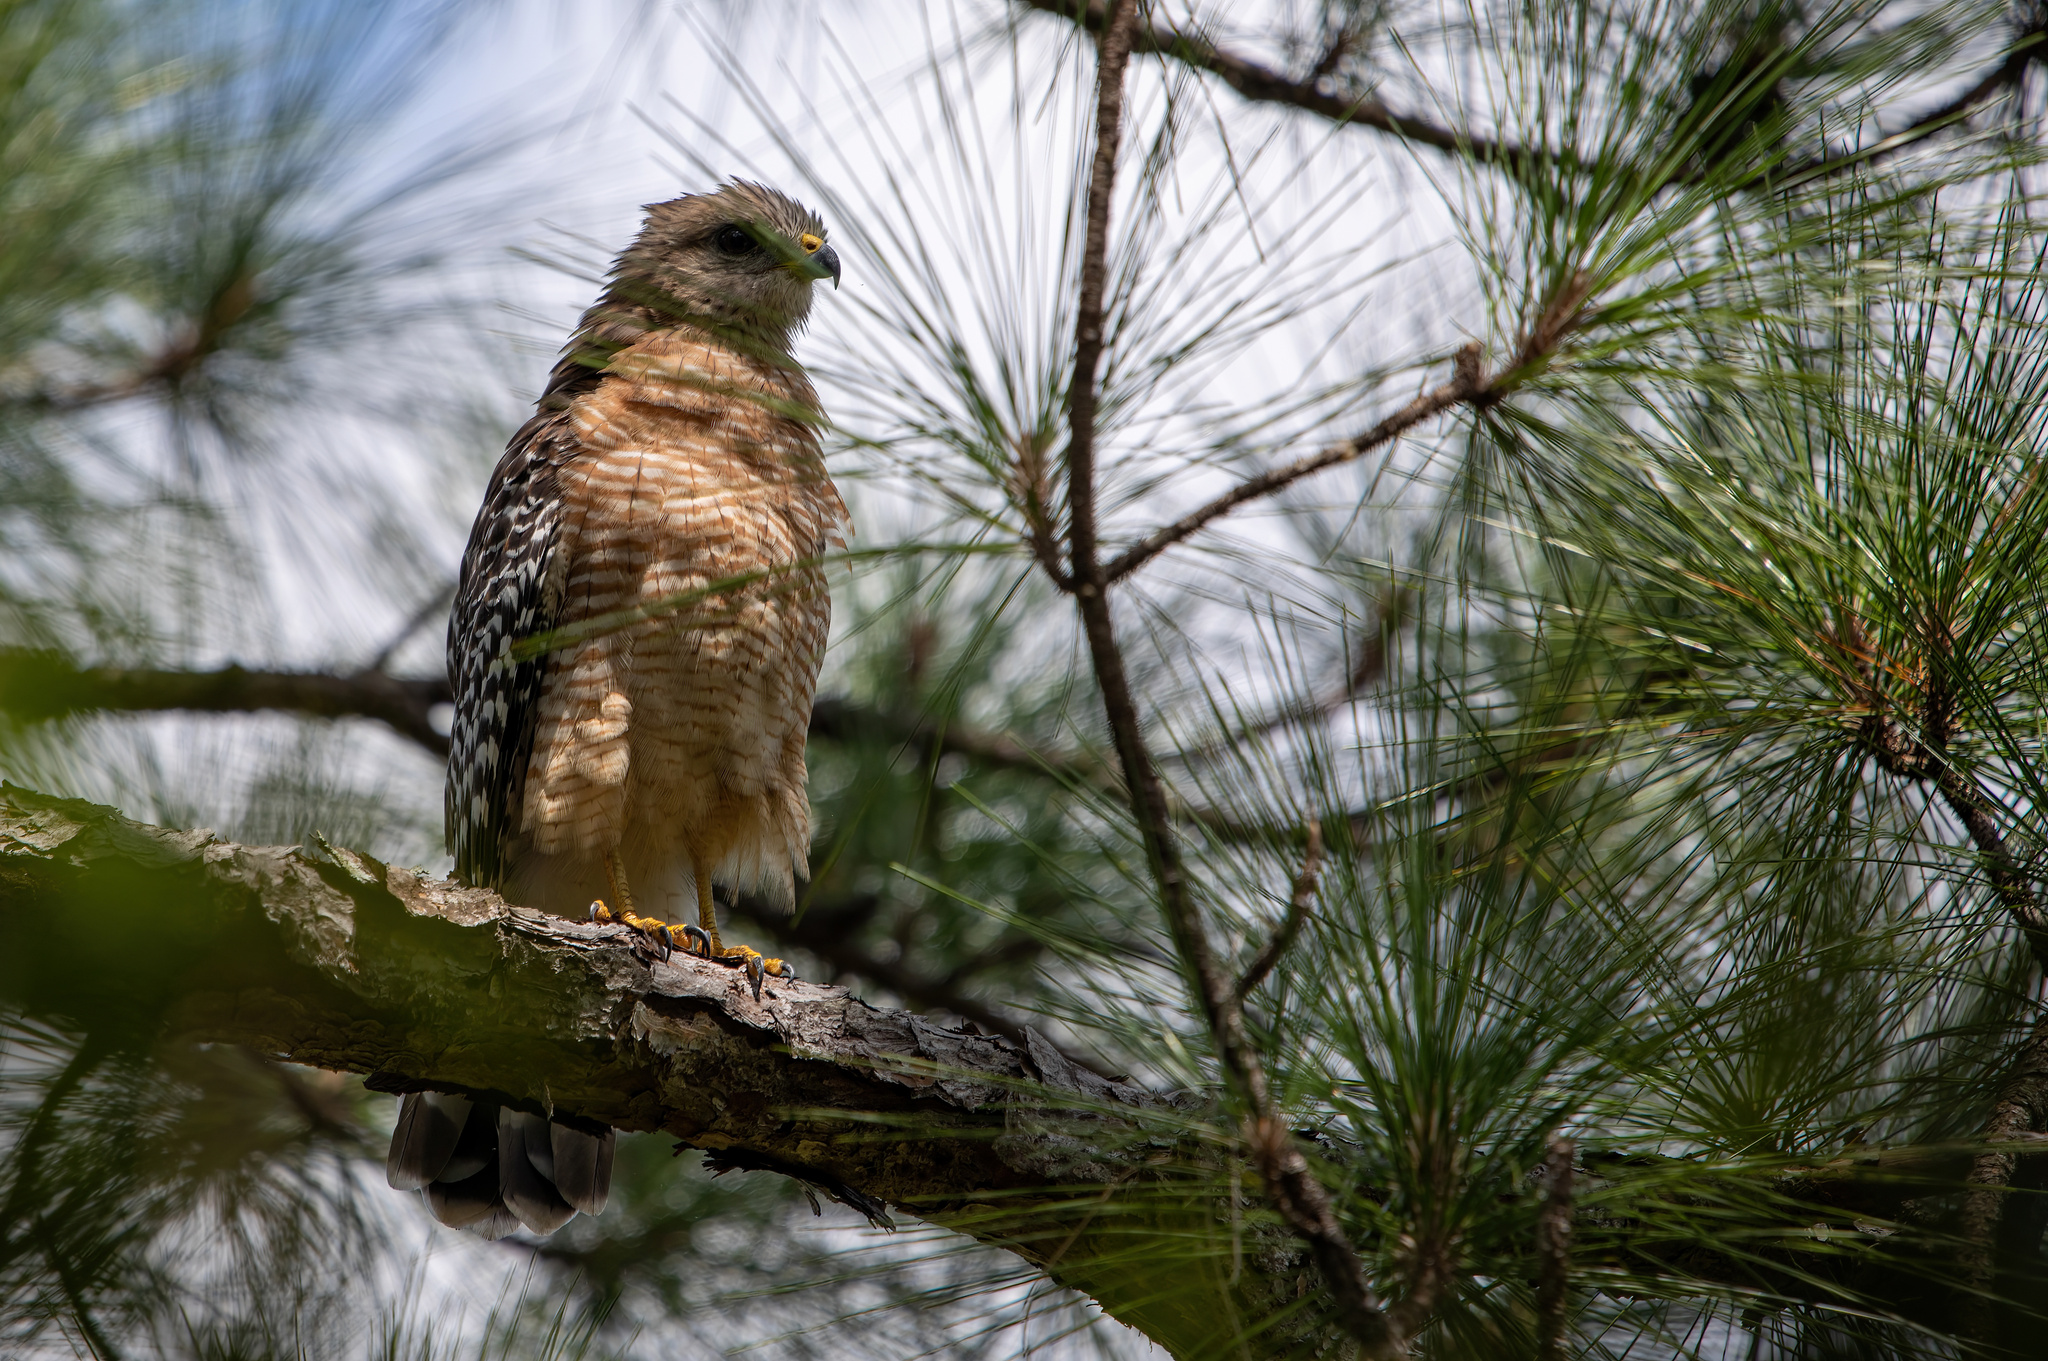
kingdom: Animalia
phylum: Chordata
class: Aves
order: Accipitriformes
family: Accipitridae
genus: Buteo
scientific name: Buteo lineatus
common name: Red-shouldered hawk
